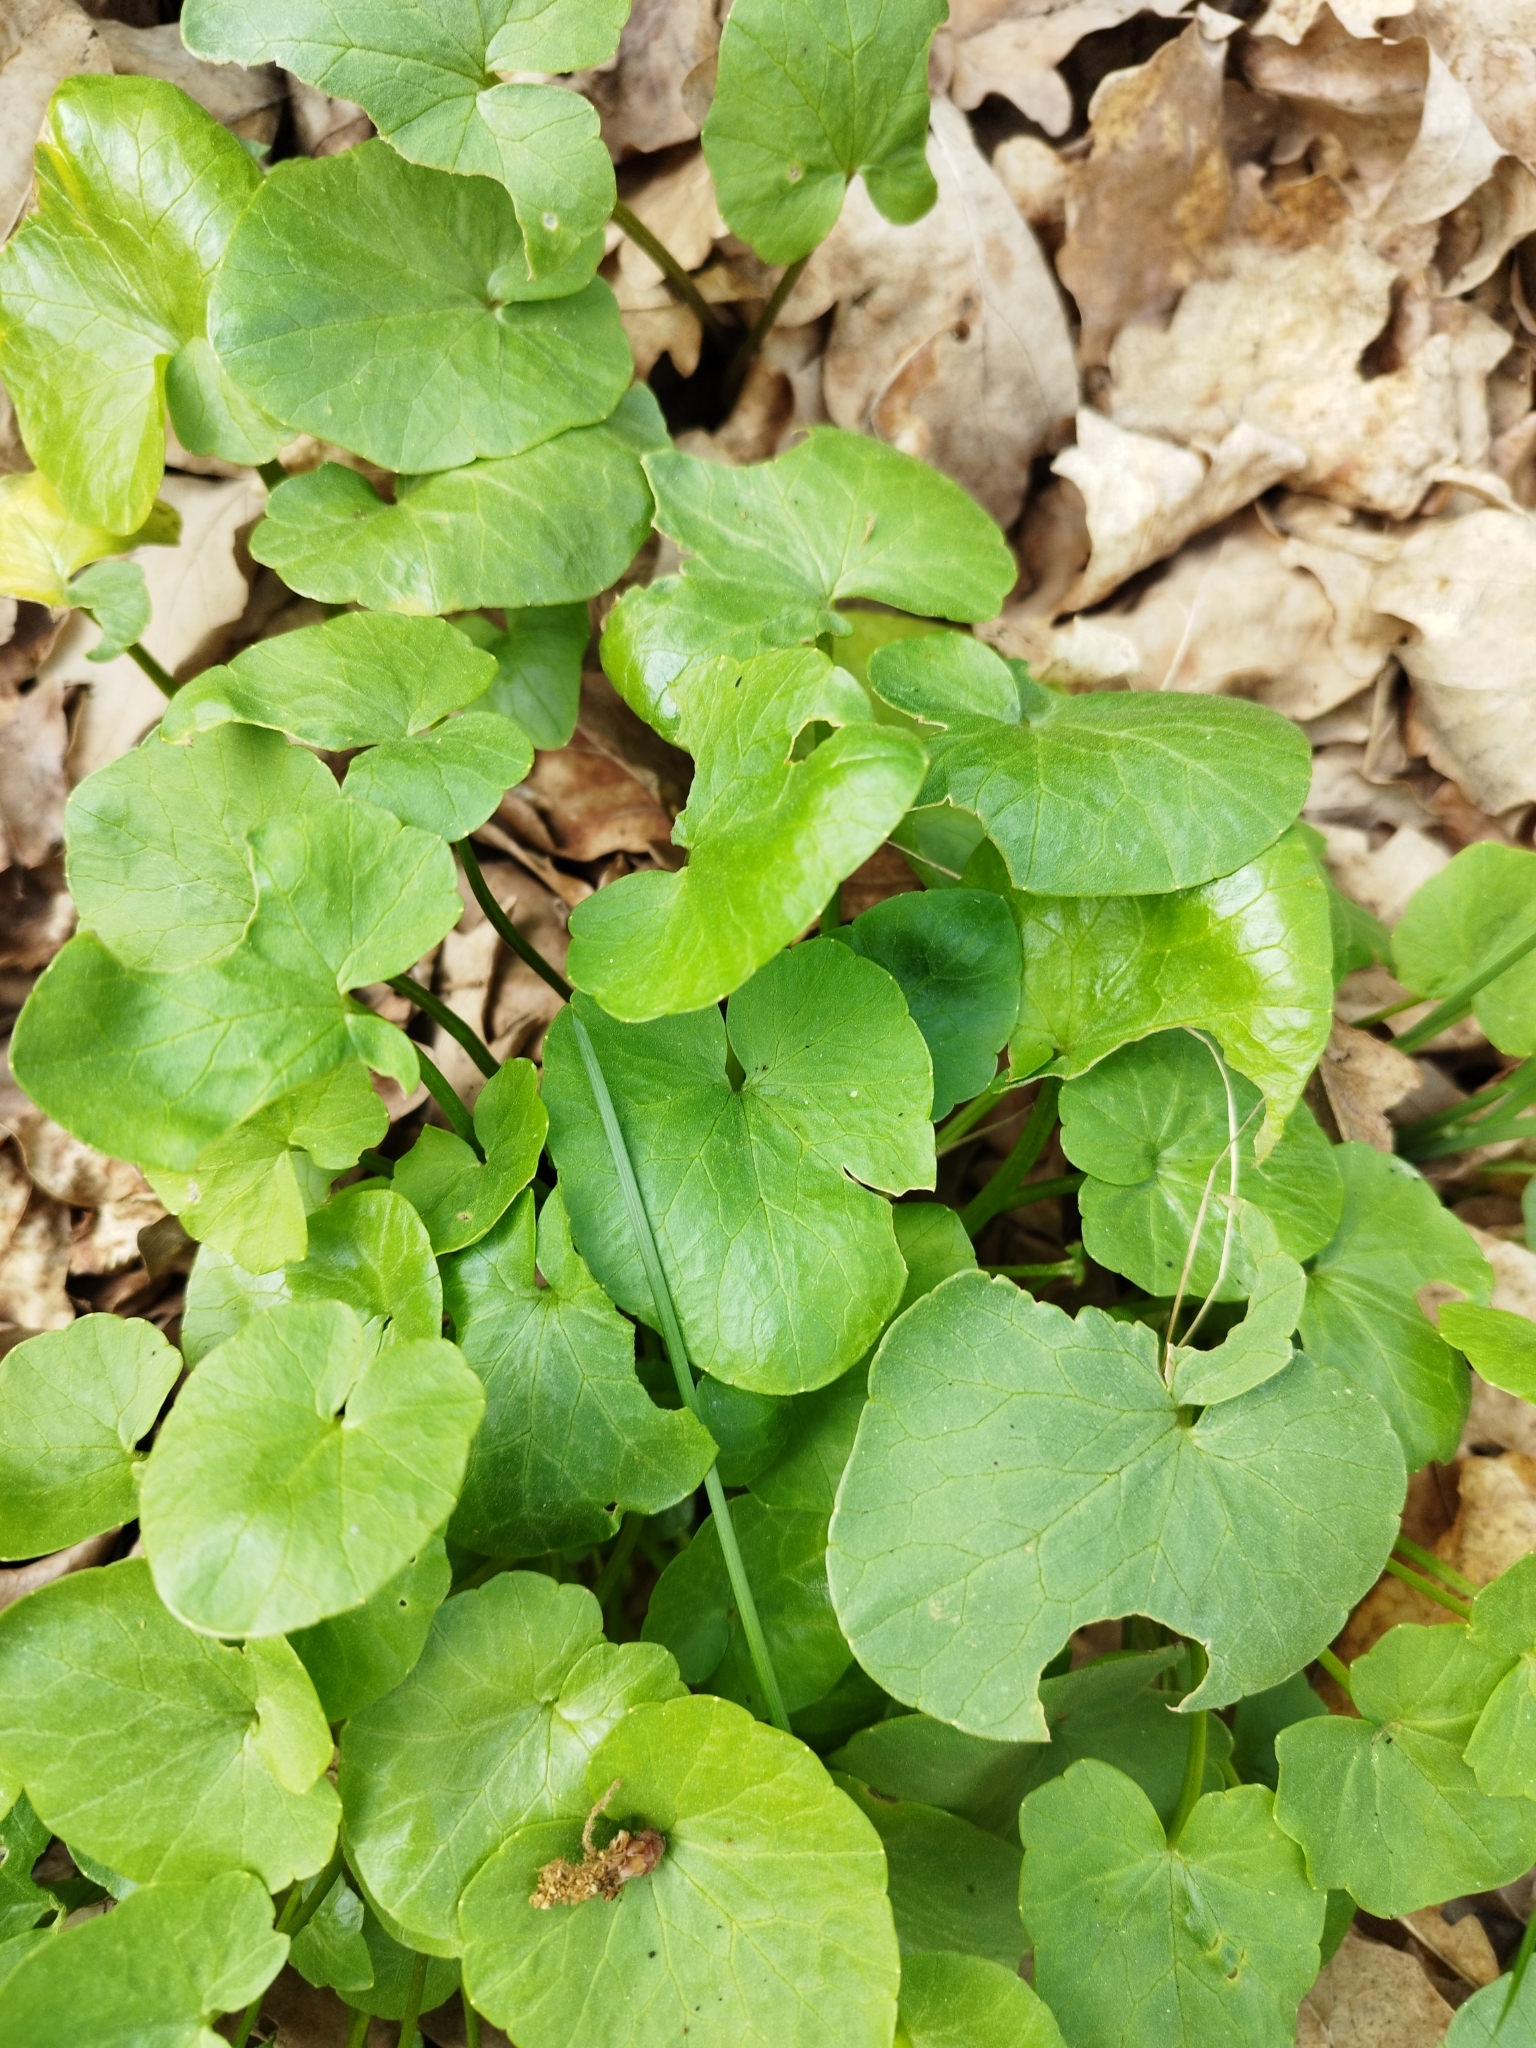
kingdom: Plantae
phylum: Tracheophyta
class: Magnoliopsida
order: Ranunculales
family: Ranunculaceae
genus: Ficaria
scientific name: Ficaria verna
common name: Lesser celandine
